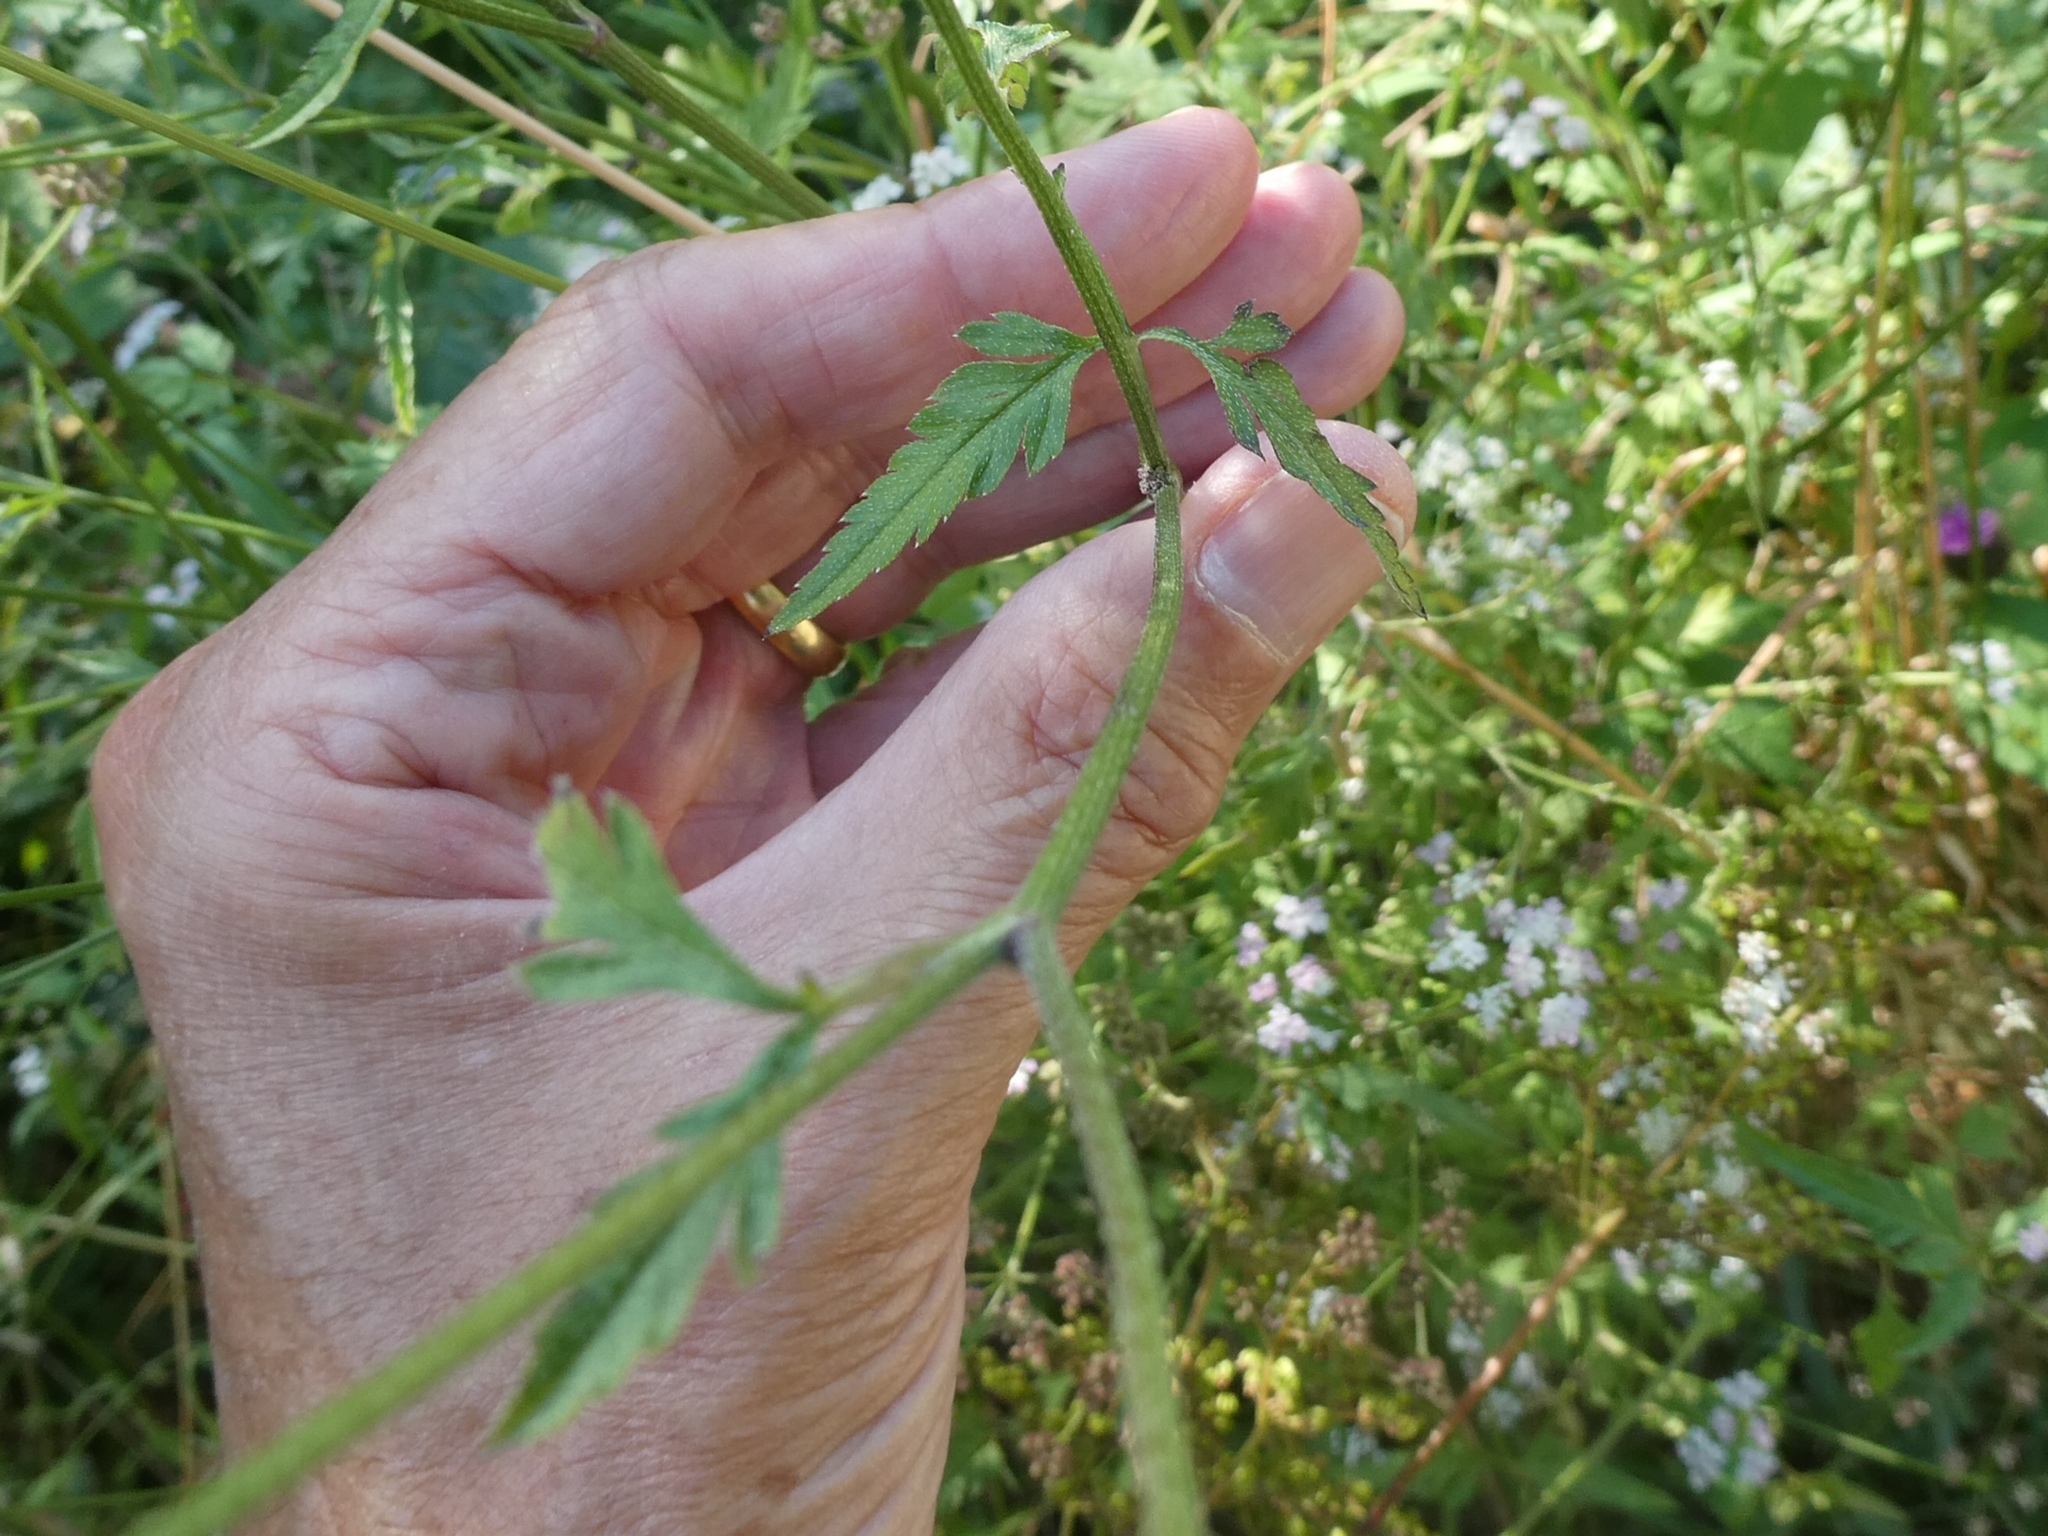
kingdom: Plantae
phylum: Tracheophyta
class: Magnoliopsida
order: Apiales
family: Apiaceae
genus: Torilis
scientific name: Torilis japonica
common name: Upright hedge-parsley
